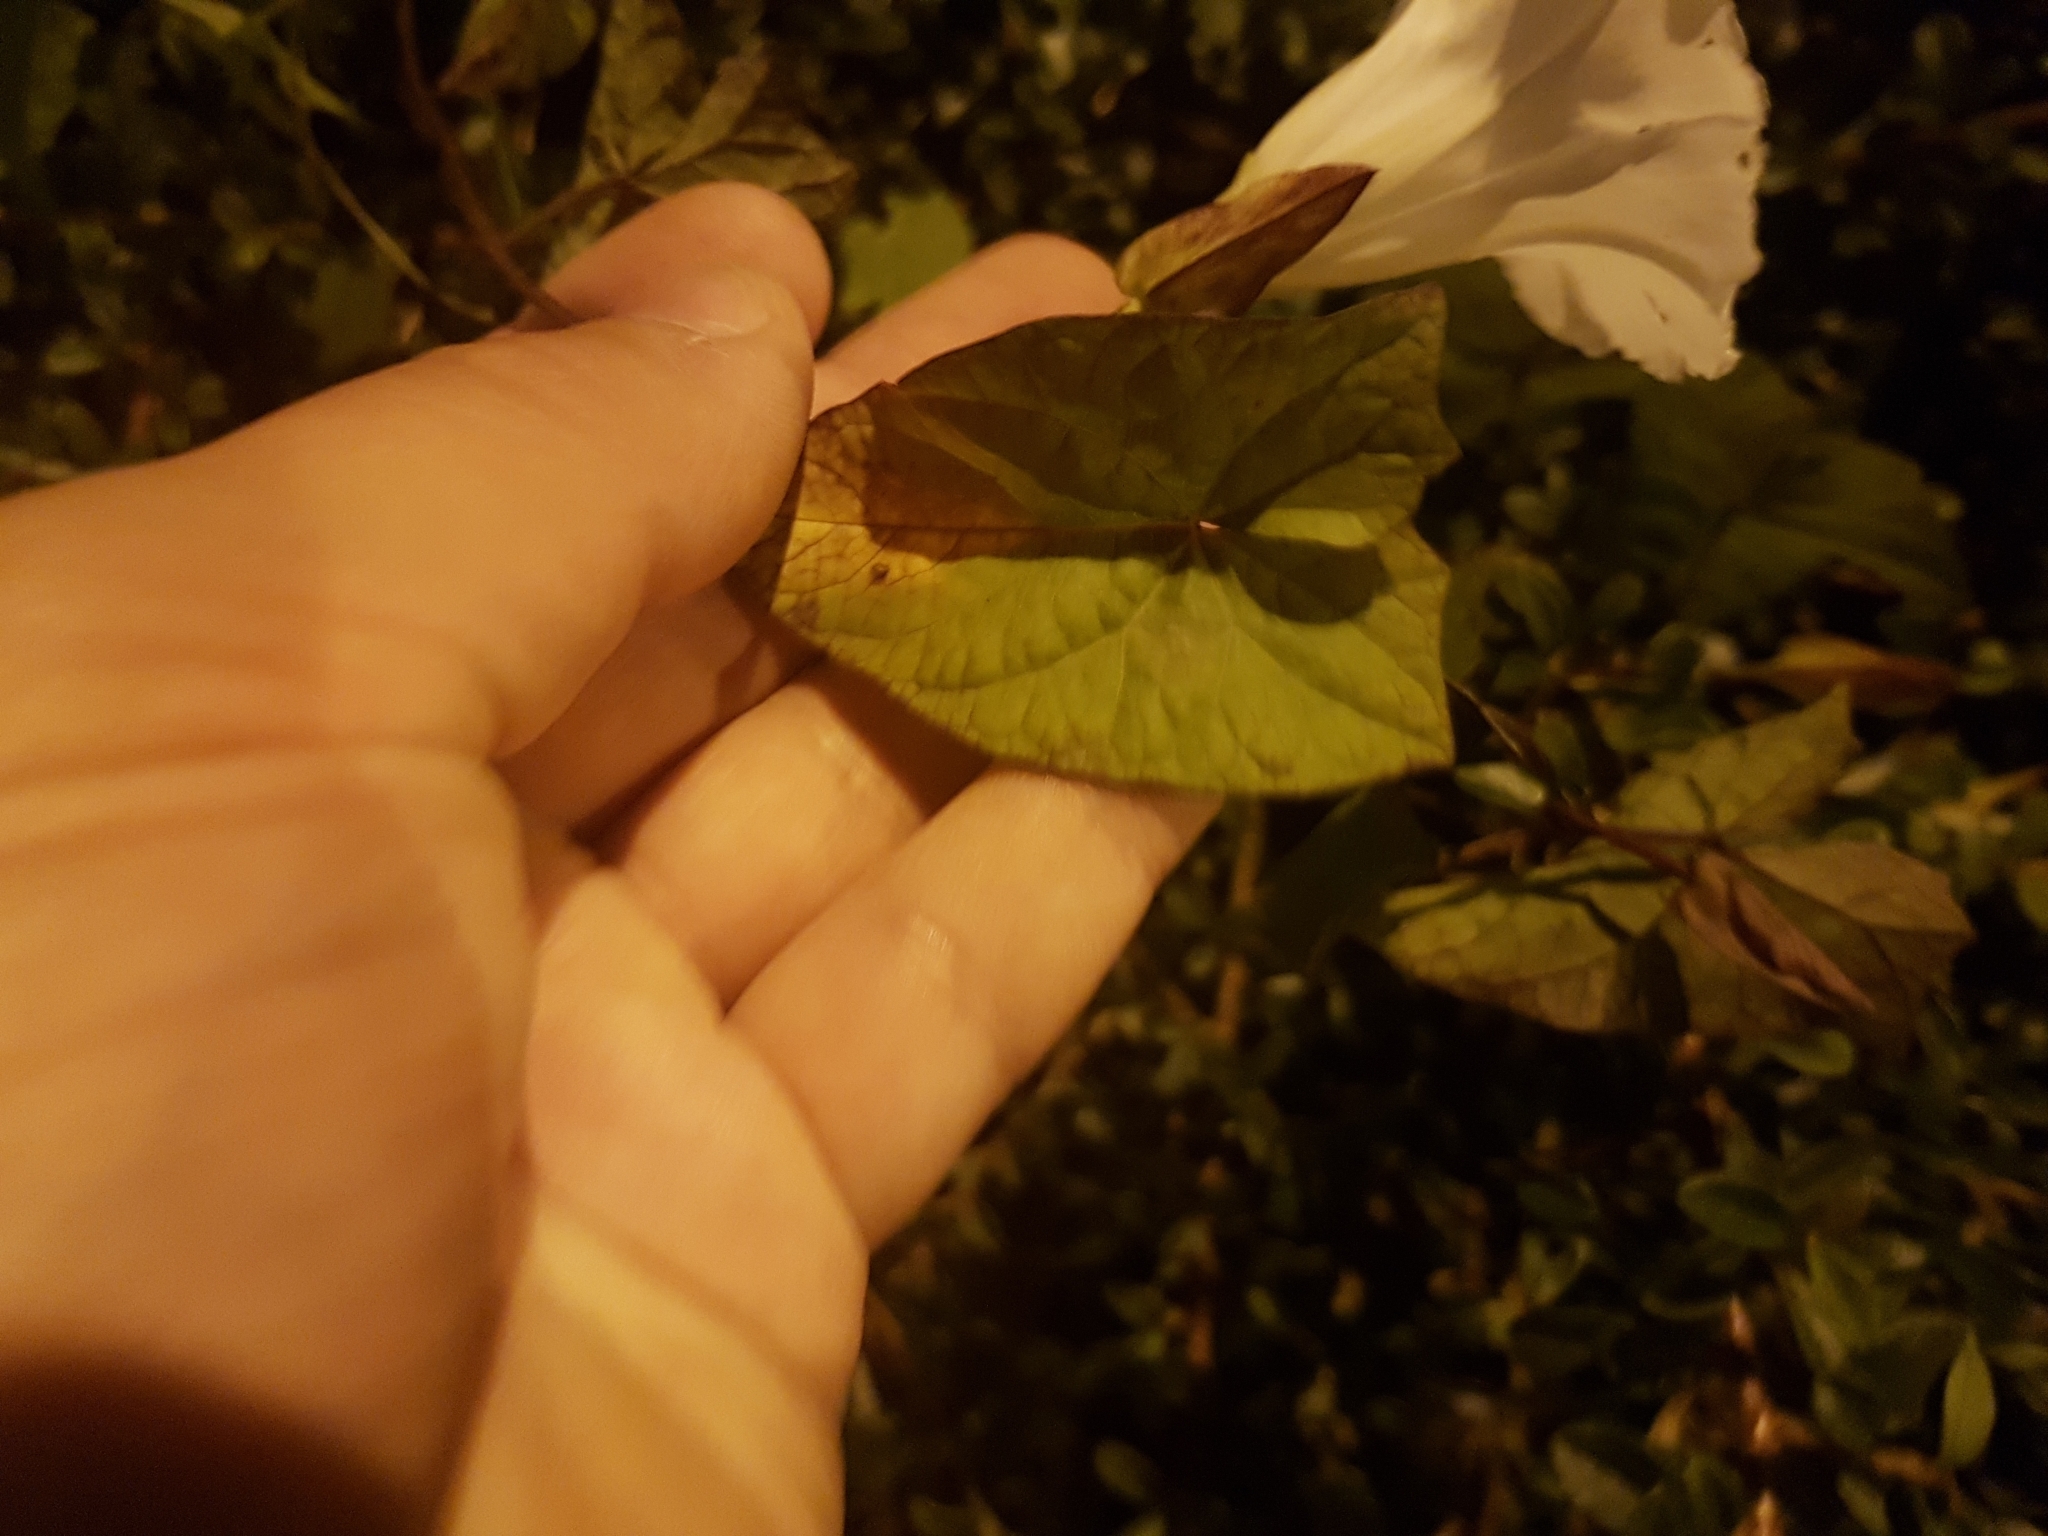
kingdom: Plantae
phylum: Tracheophyta
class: Magnoliopsida
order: Solanales
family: Convolvulaceae
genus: Calystegia
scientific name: Calystegia sepium
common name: Hedge bindweed
